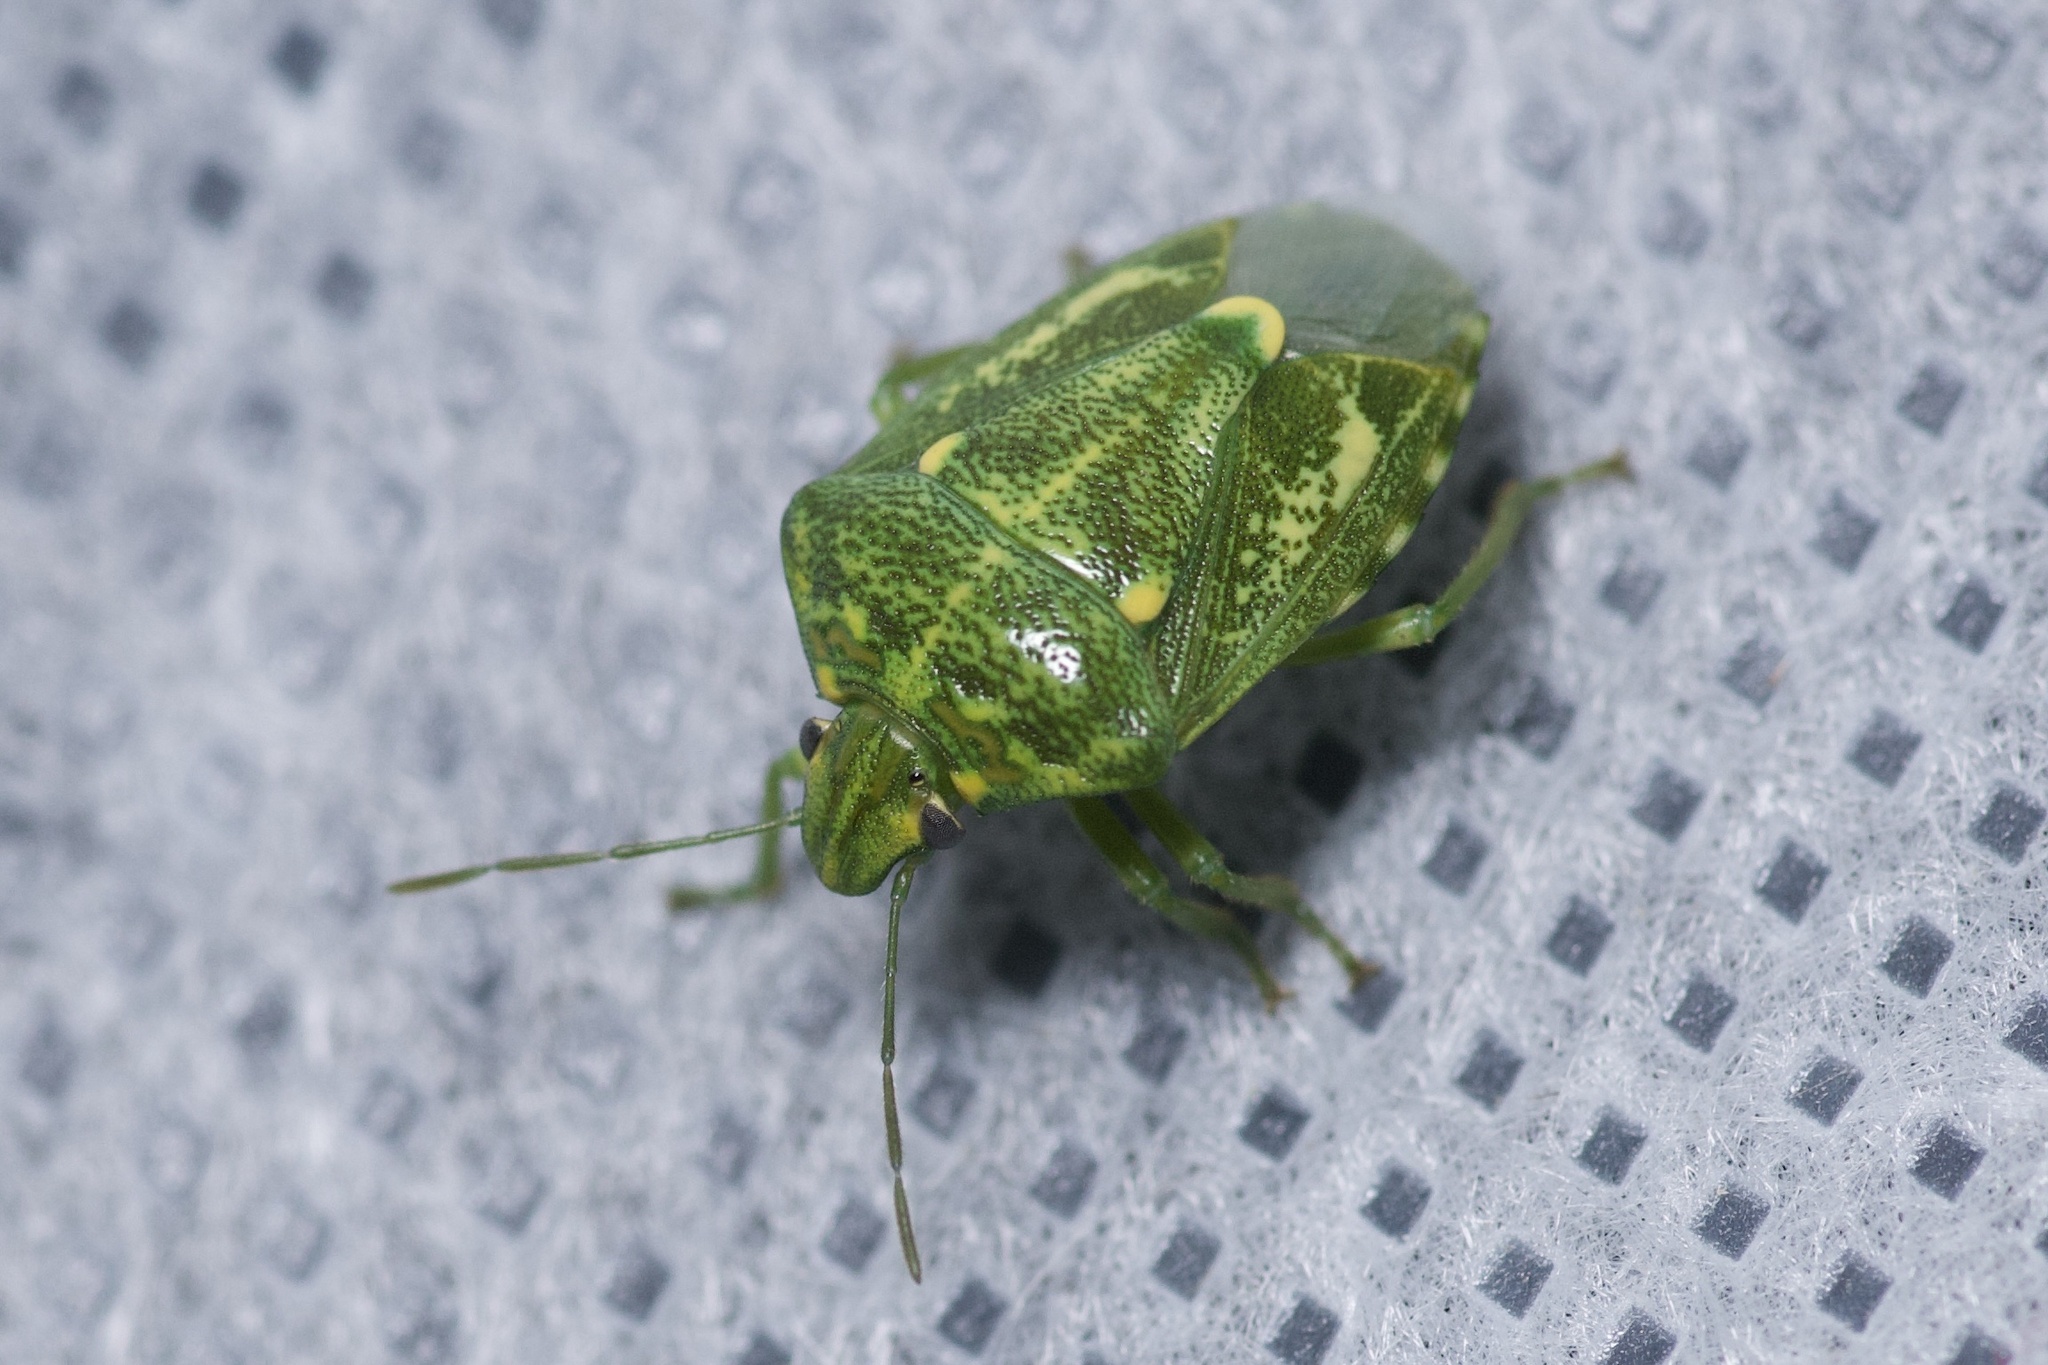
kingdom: Animalia
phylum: Arthropoda
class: Insecta
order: Hemiptera
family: Pentatomidae
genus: Banasa
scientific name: Banasa euchlora
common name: Cedar berry bug
